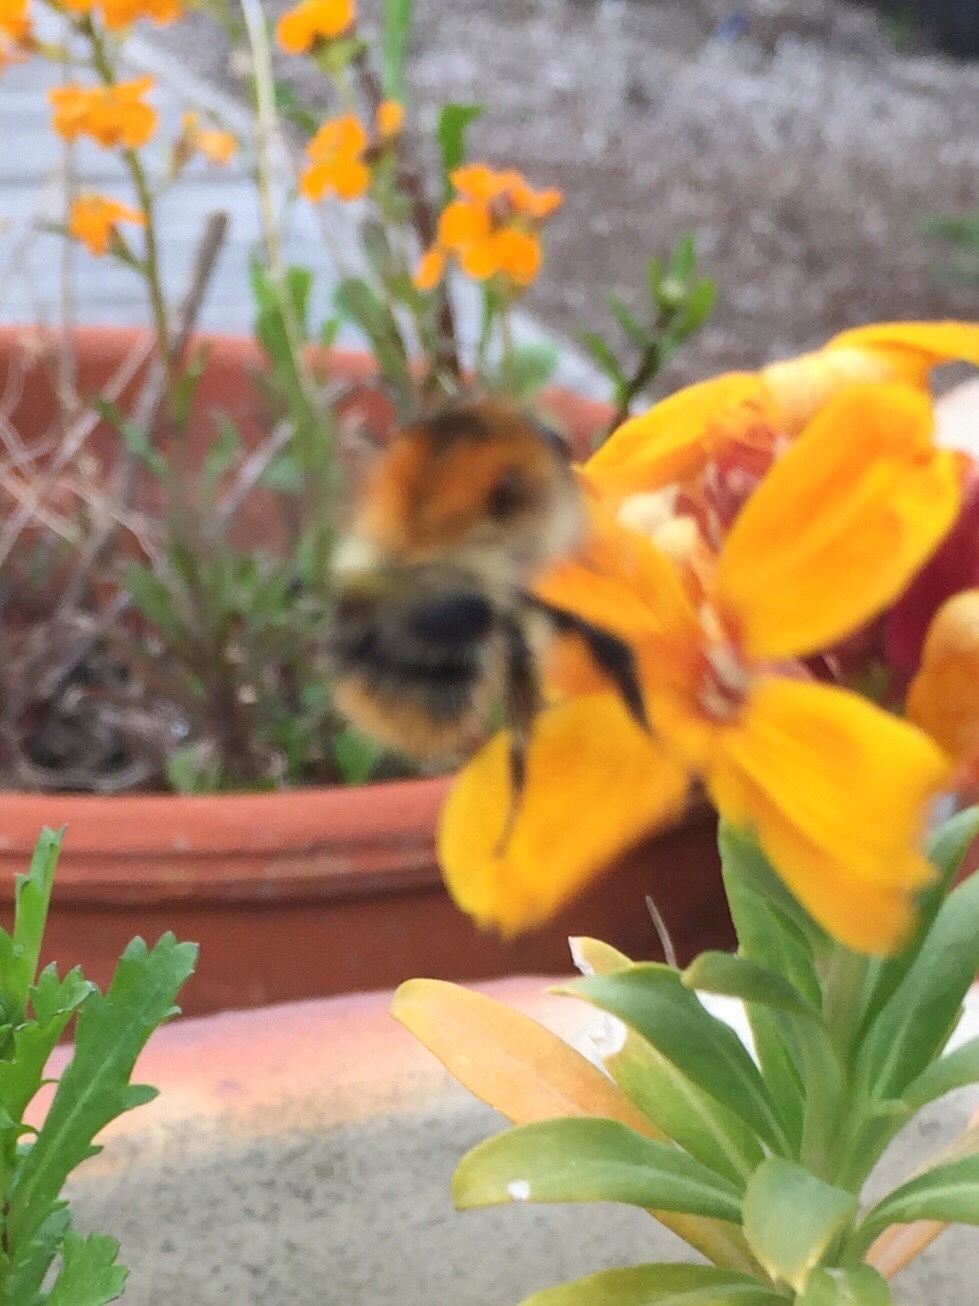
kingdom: Animalia
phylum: Arthropoda
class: Insecta
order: Hymenoptera
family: Apidae
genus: Bombus
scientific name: Bombus pascuorum
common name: Common carder bee
